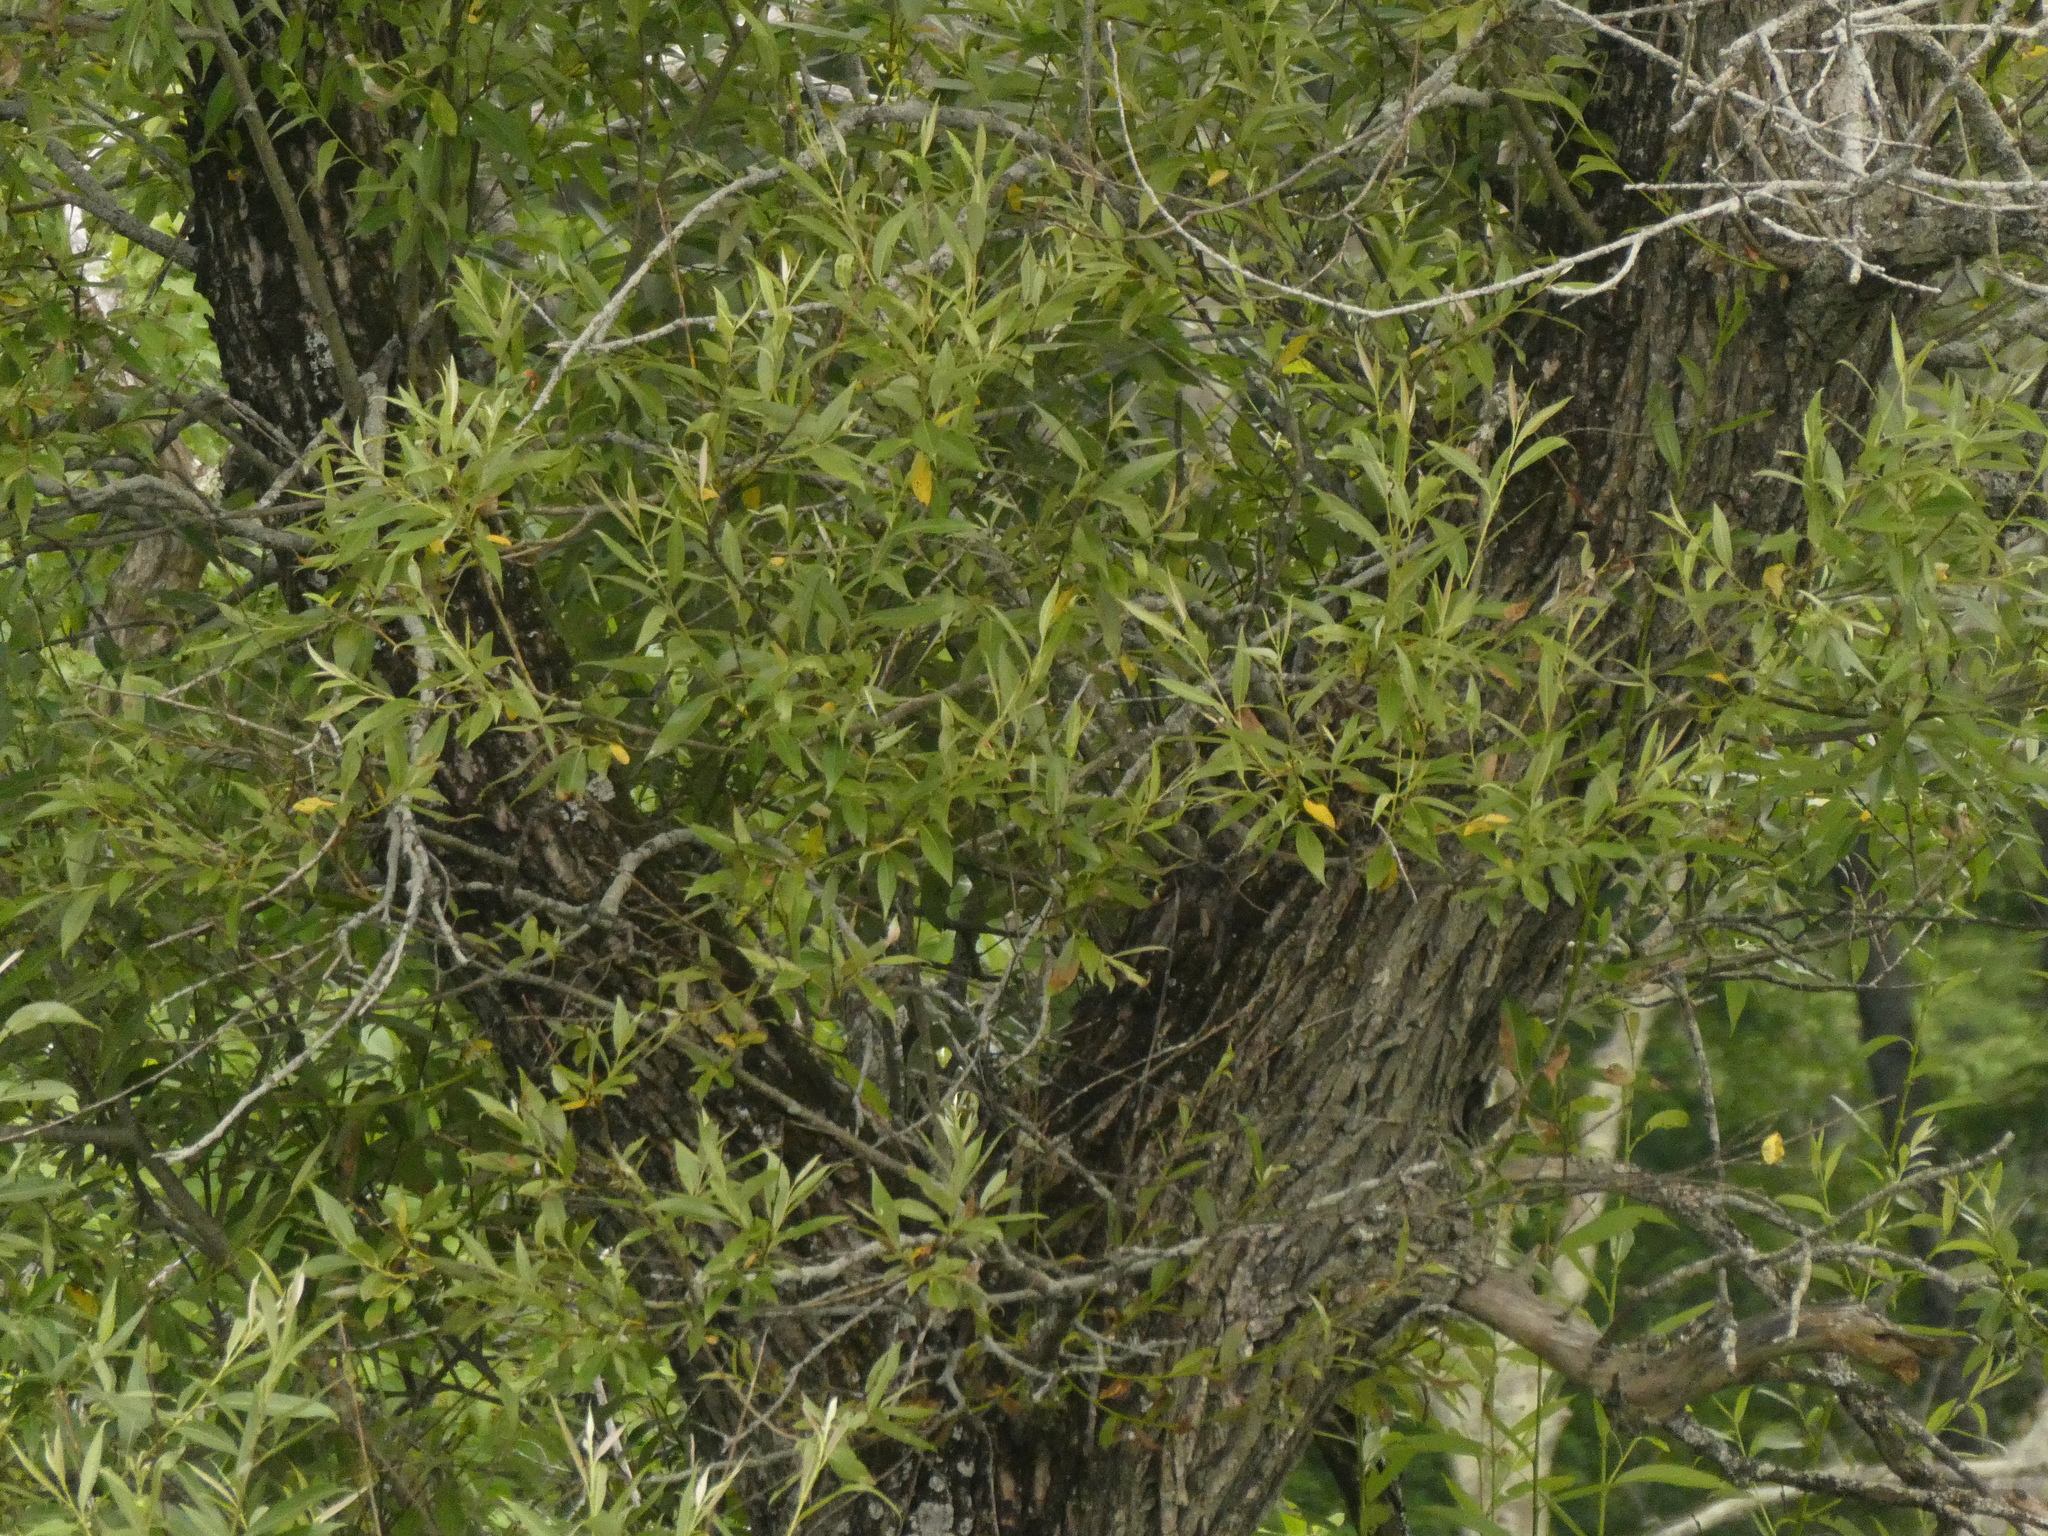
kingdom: Plantae
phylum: Tracheophyta
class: Magnoliopsida
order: Malpighiales
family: Salicaceae
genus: Salix
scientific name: Salix nigra
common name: Black willow
